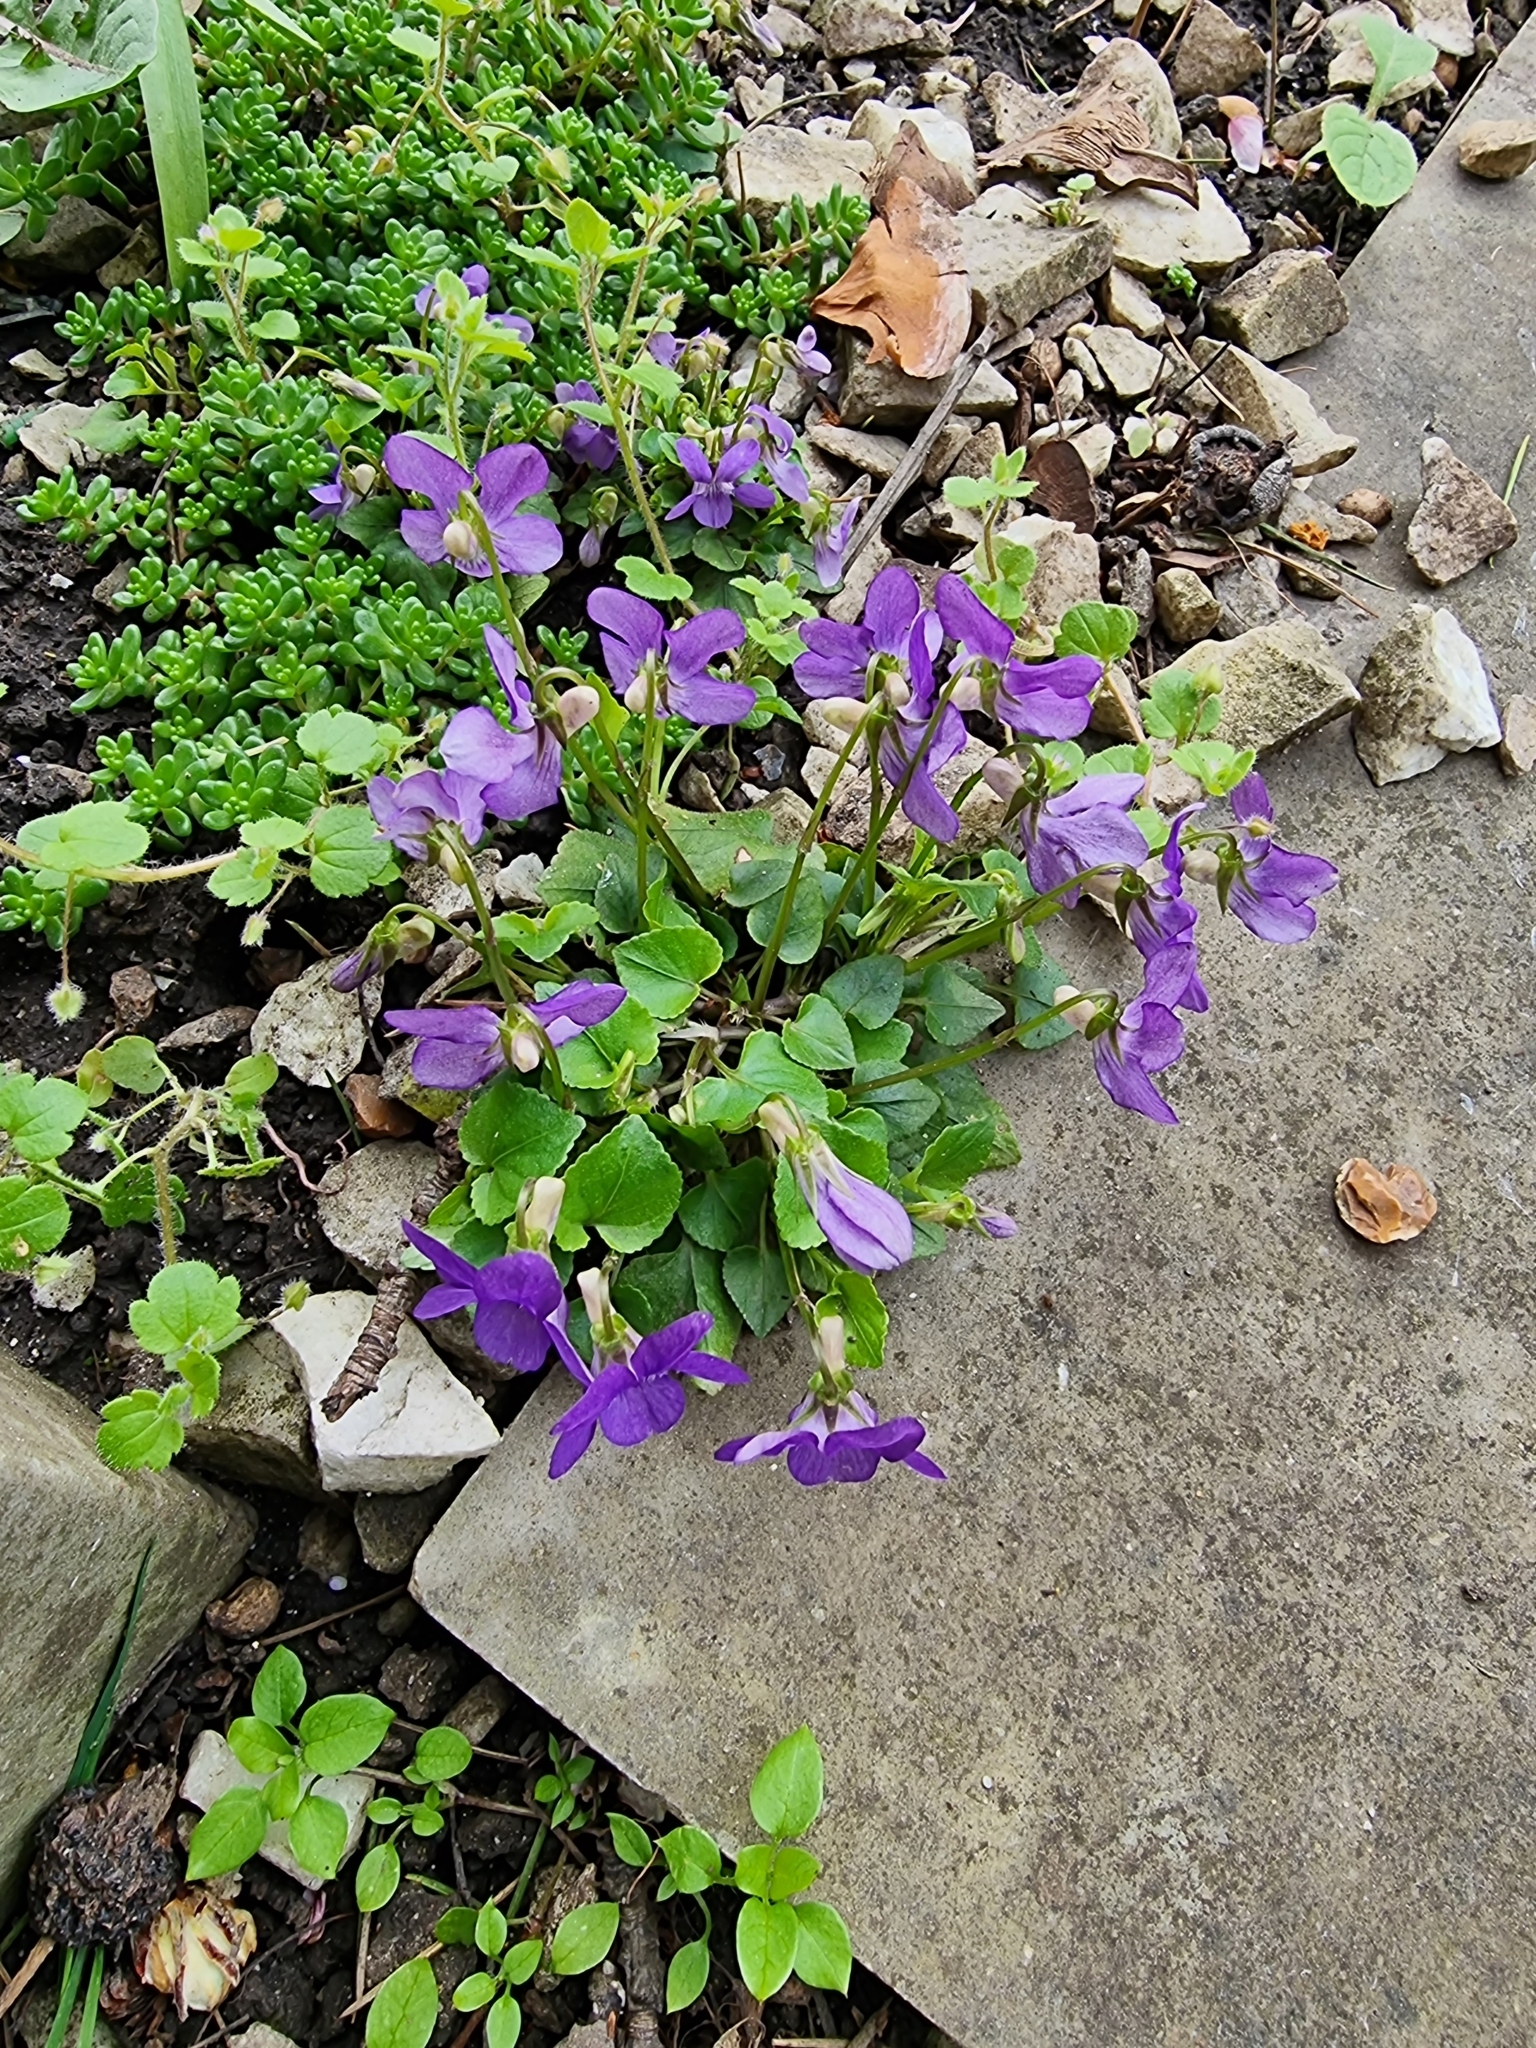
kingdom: Plantae
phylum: Tracheophyta
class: Magnoliopsida
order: Malpighiales
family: Violaceae
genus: Viola
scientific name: Viola riviniana
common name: Common dog-violet
